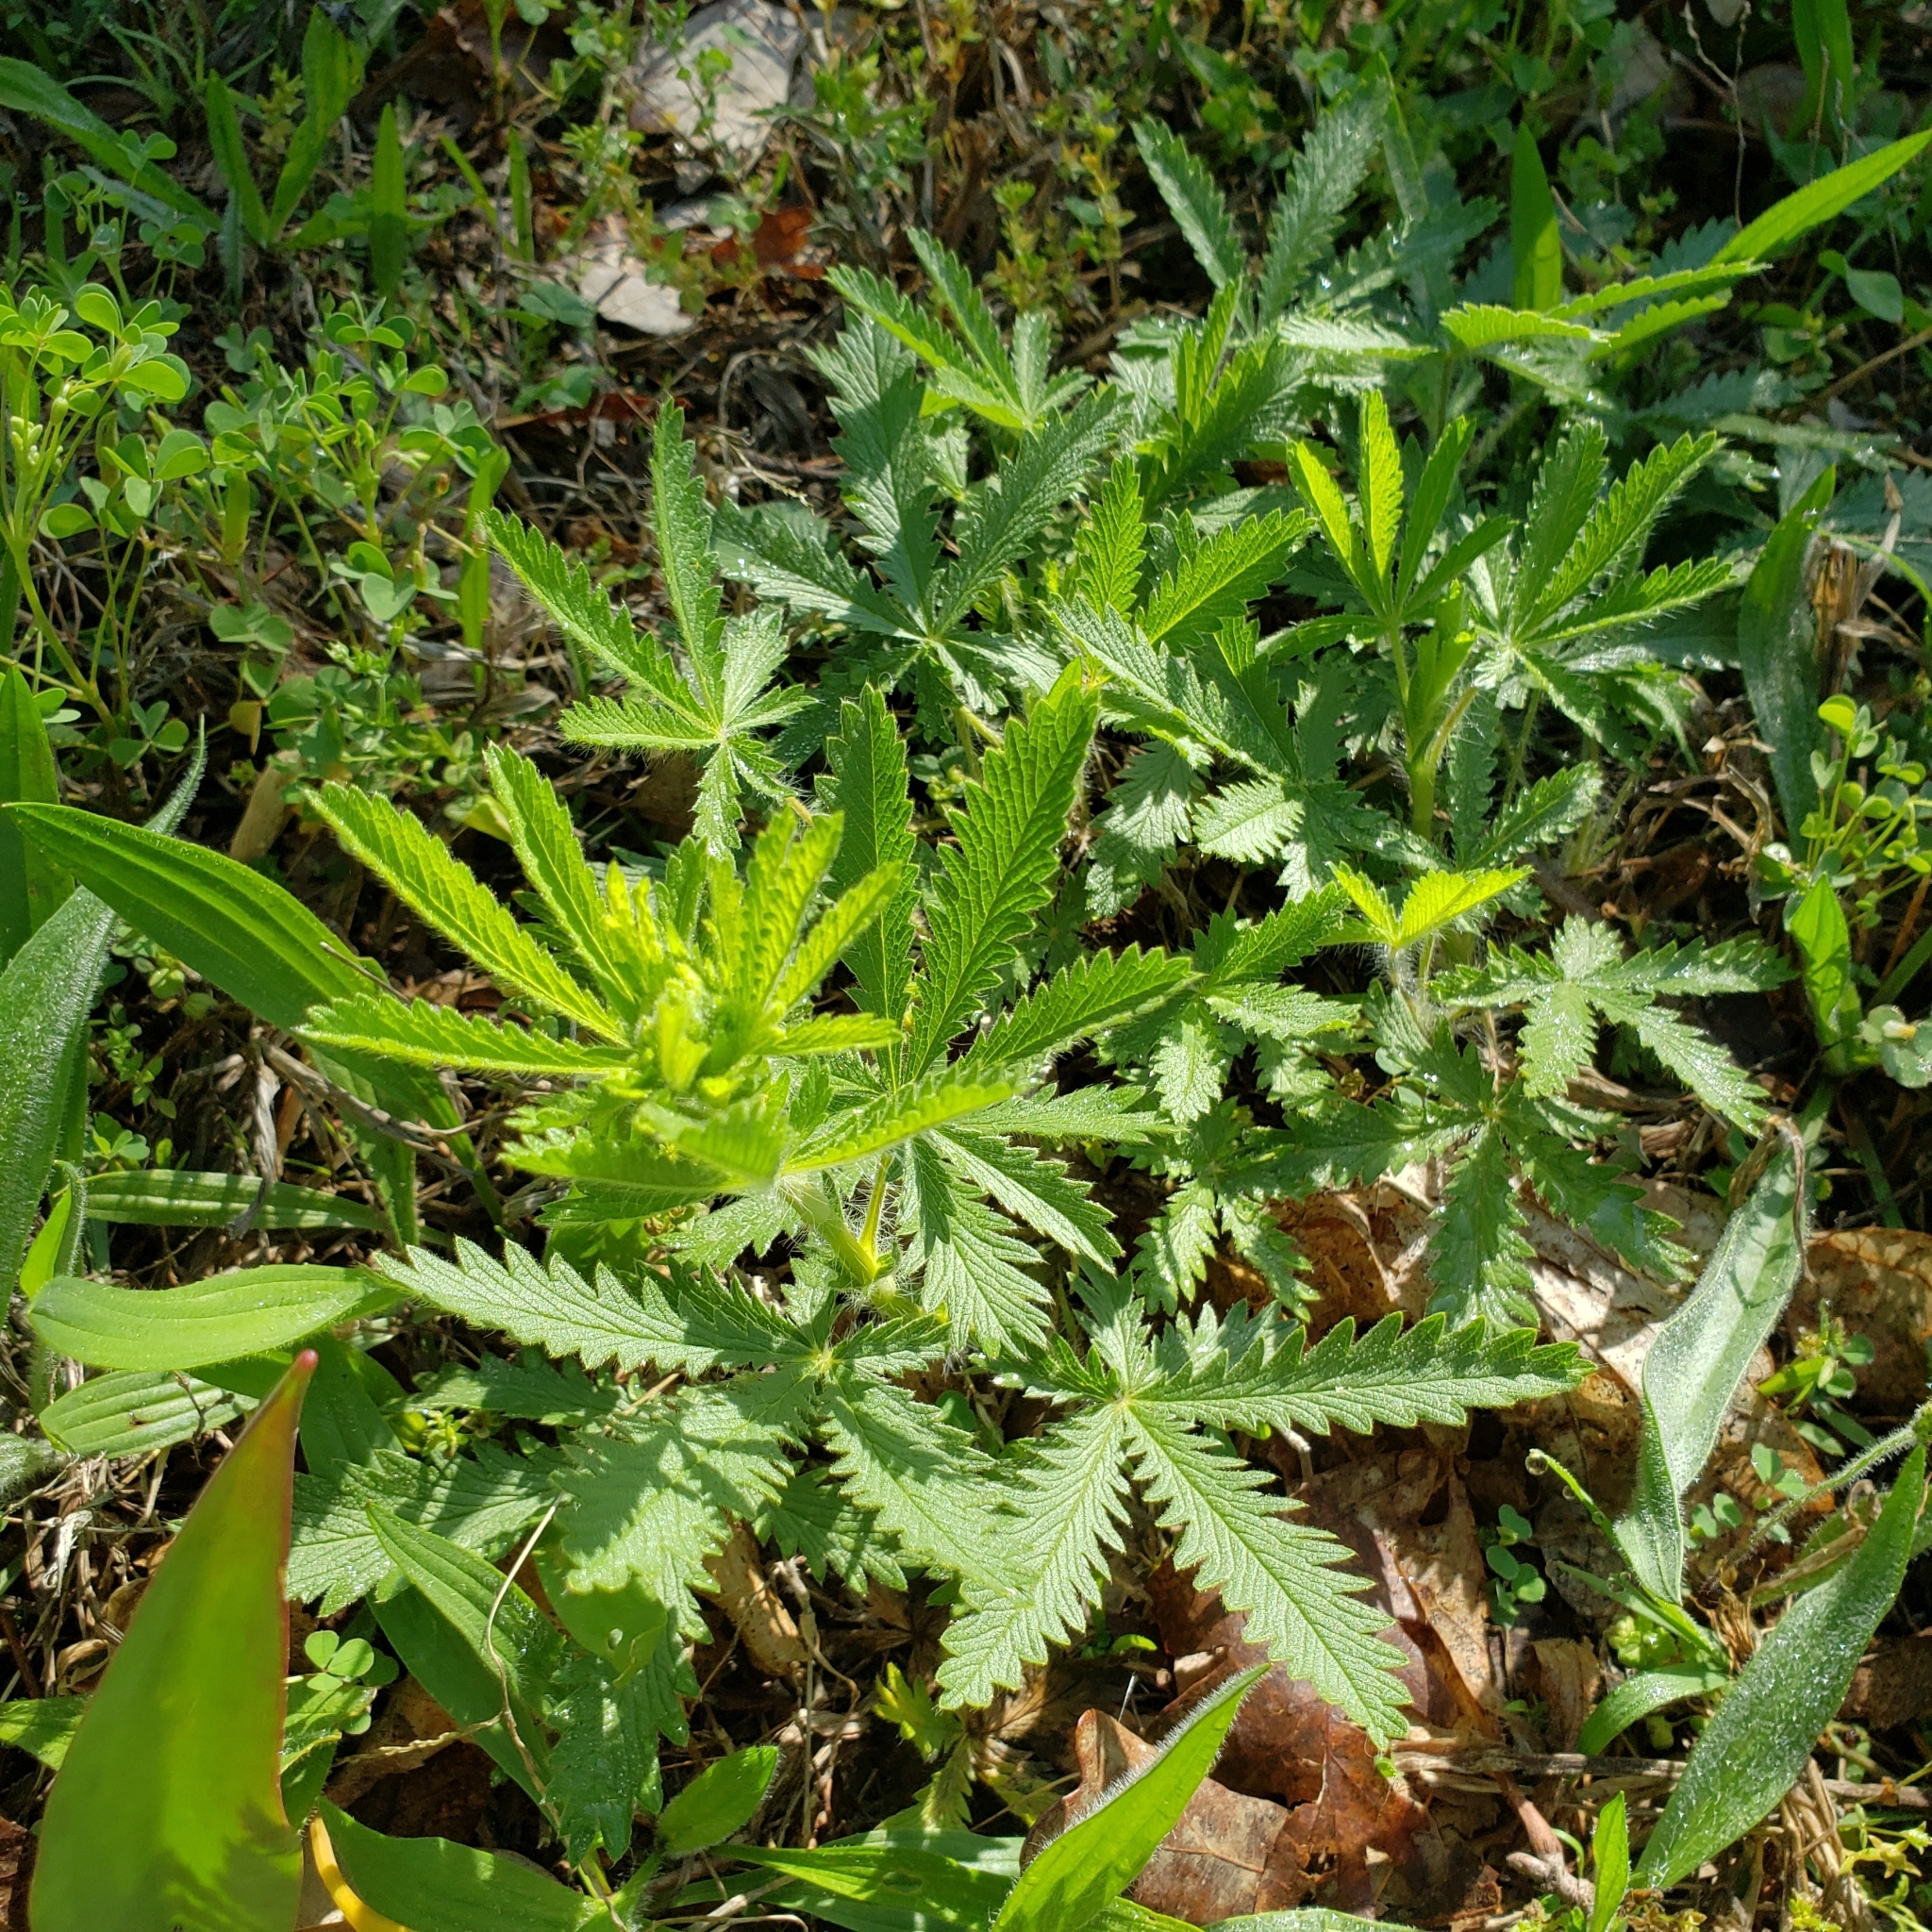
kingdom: Plantae
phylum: Tracheophyta
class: Magnoliopsida
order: Rosales
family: Rosaceae
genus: Potentilla
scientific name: Potentilla recta
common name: Sulphur cinquefoil
